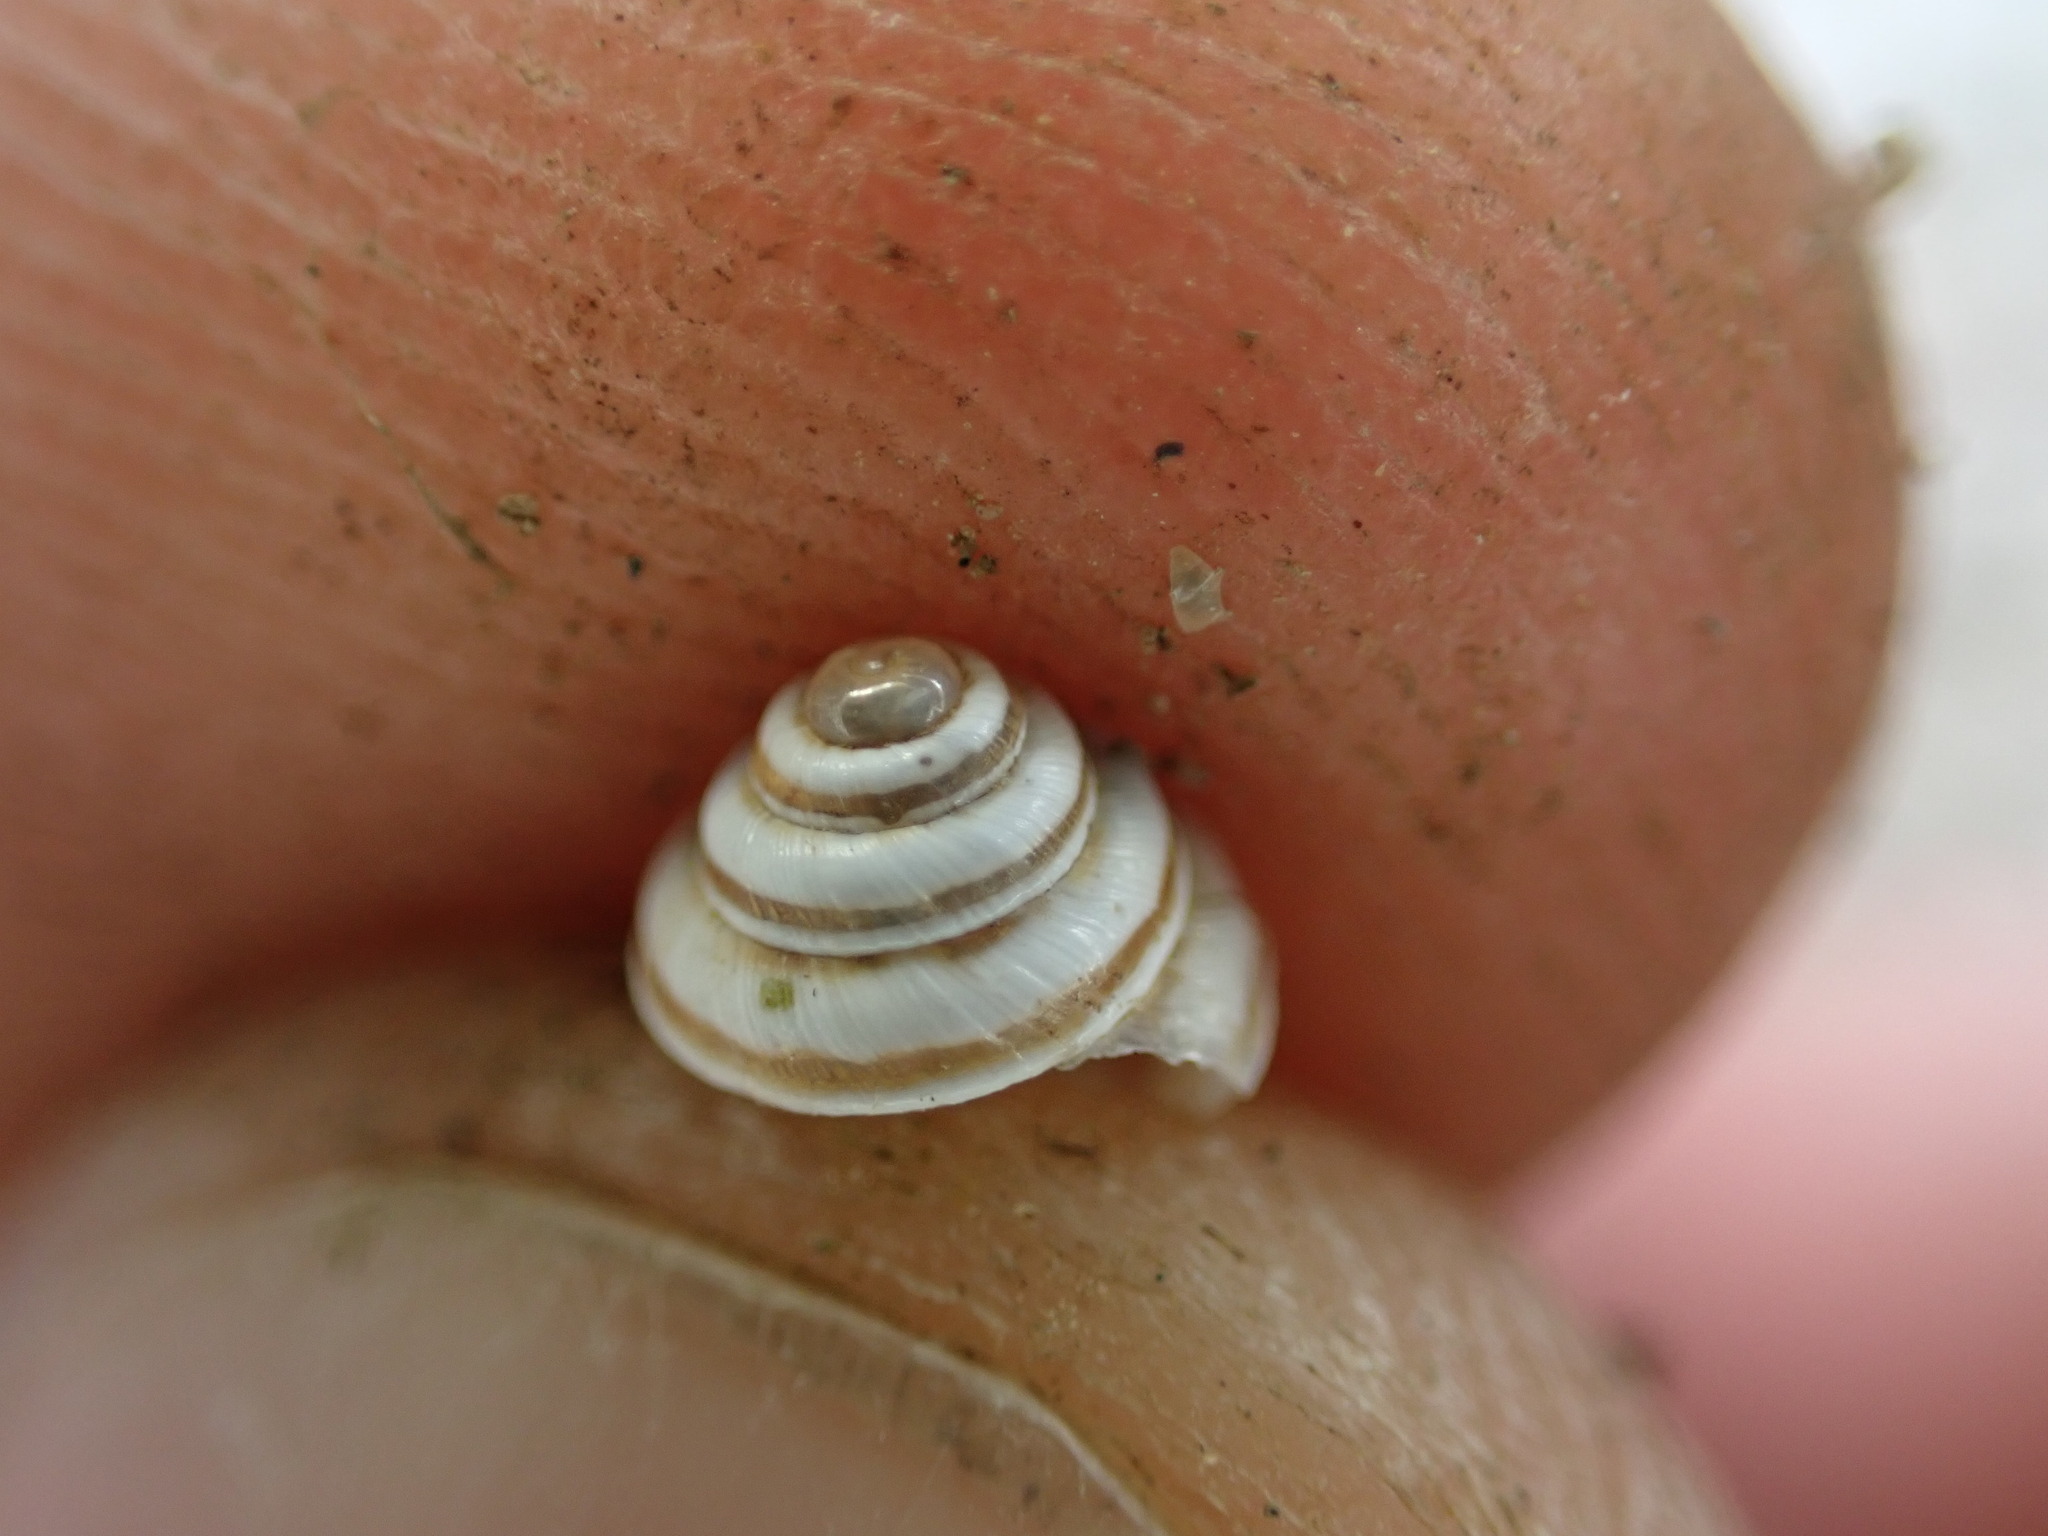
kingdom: Animalia
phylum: Mollusca
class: Gastropoda
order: Stylommatophora
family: Geomitridae
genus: Trochoidea
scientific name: Trochoidea trochoides
